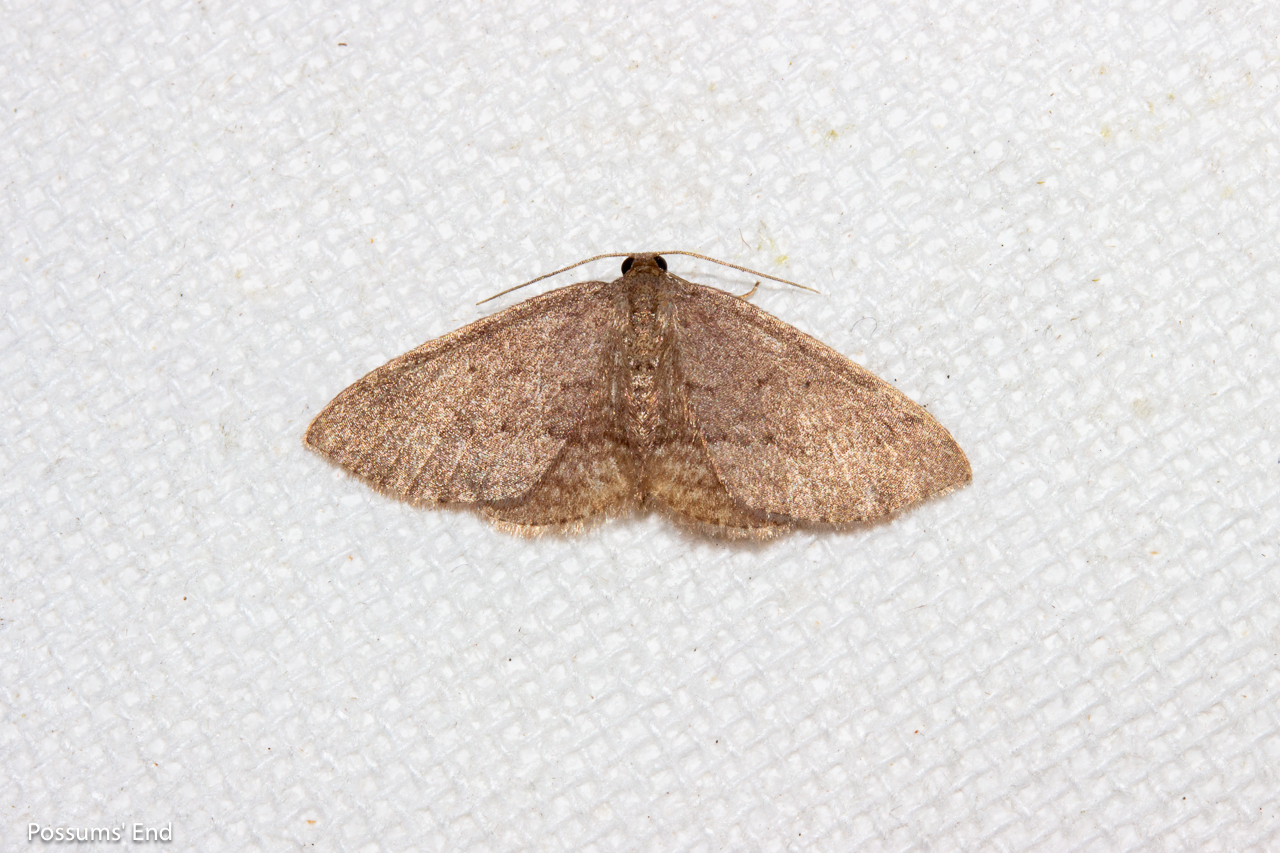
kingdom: Animalia
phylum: Arthropoda
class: Insecta
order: Lepidoptera
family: Geometridae
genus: Poecilasthena
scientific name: Poecilasthena schistaria
